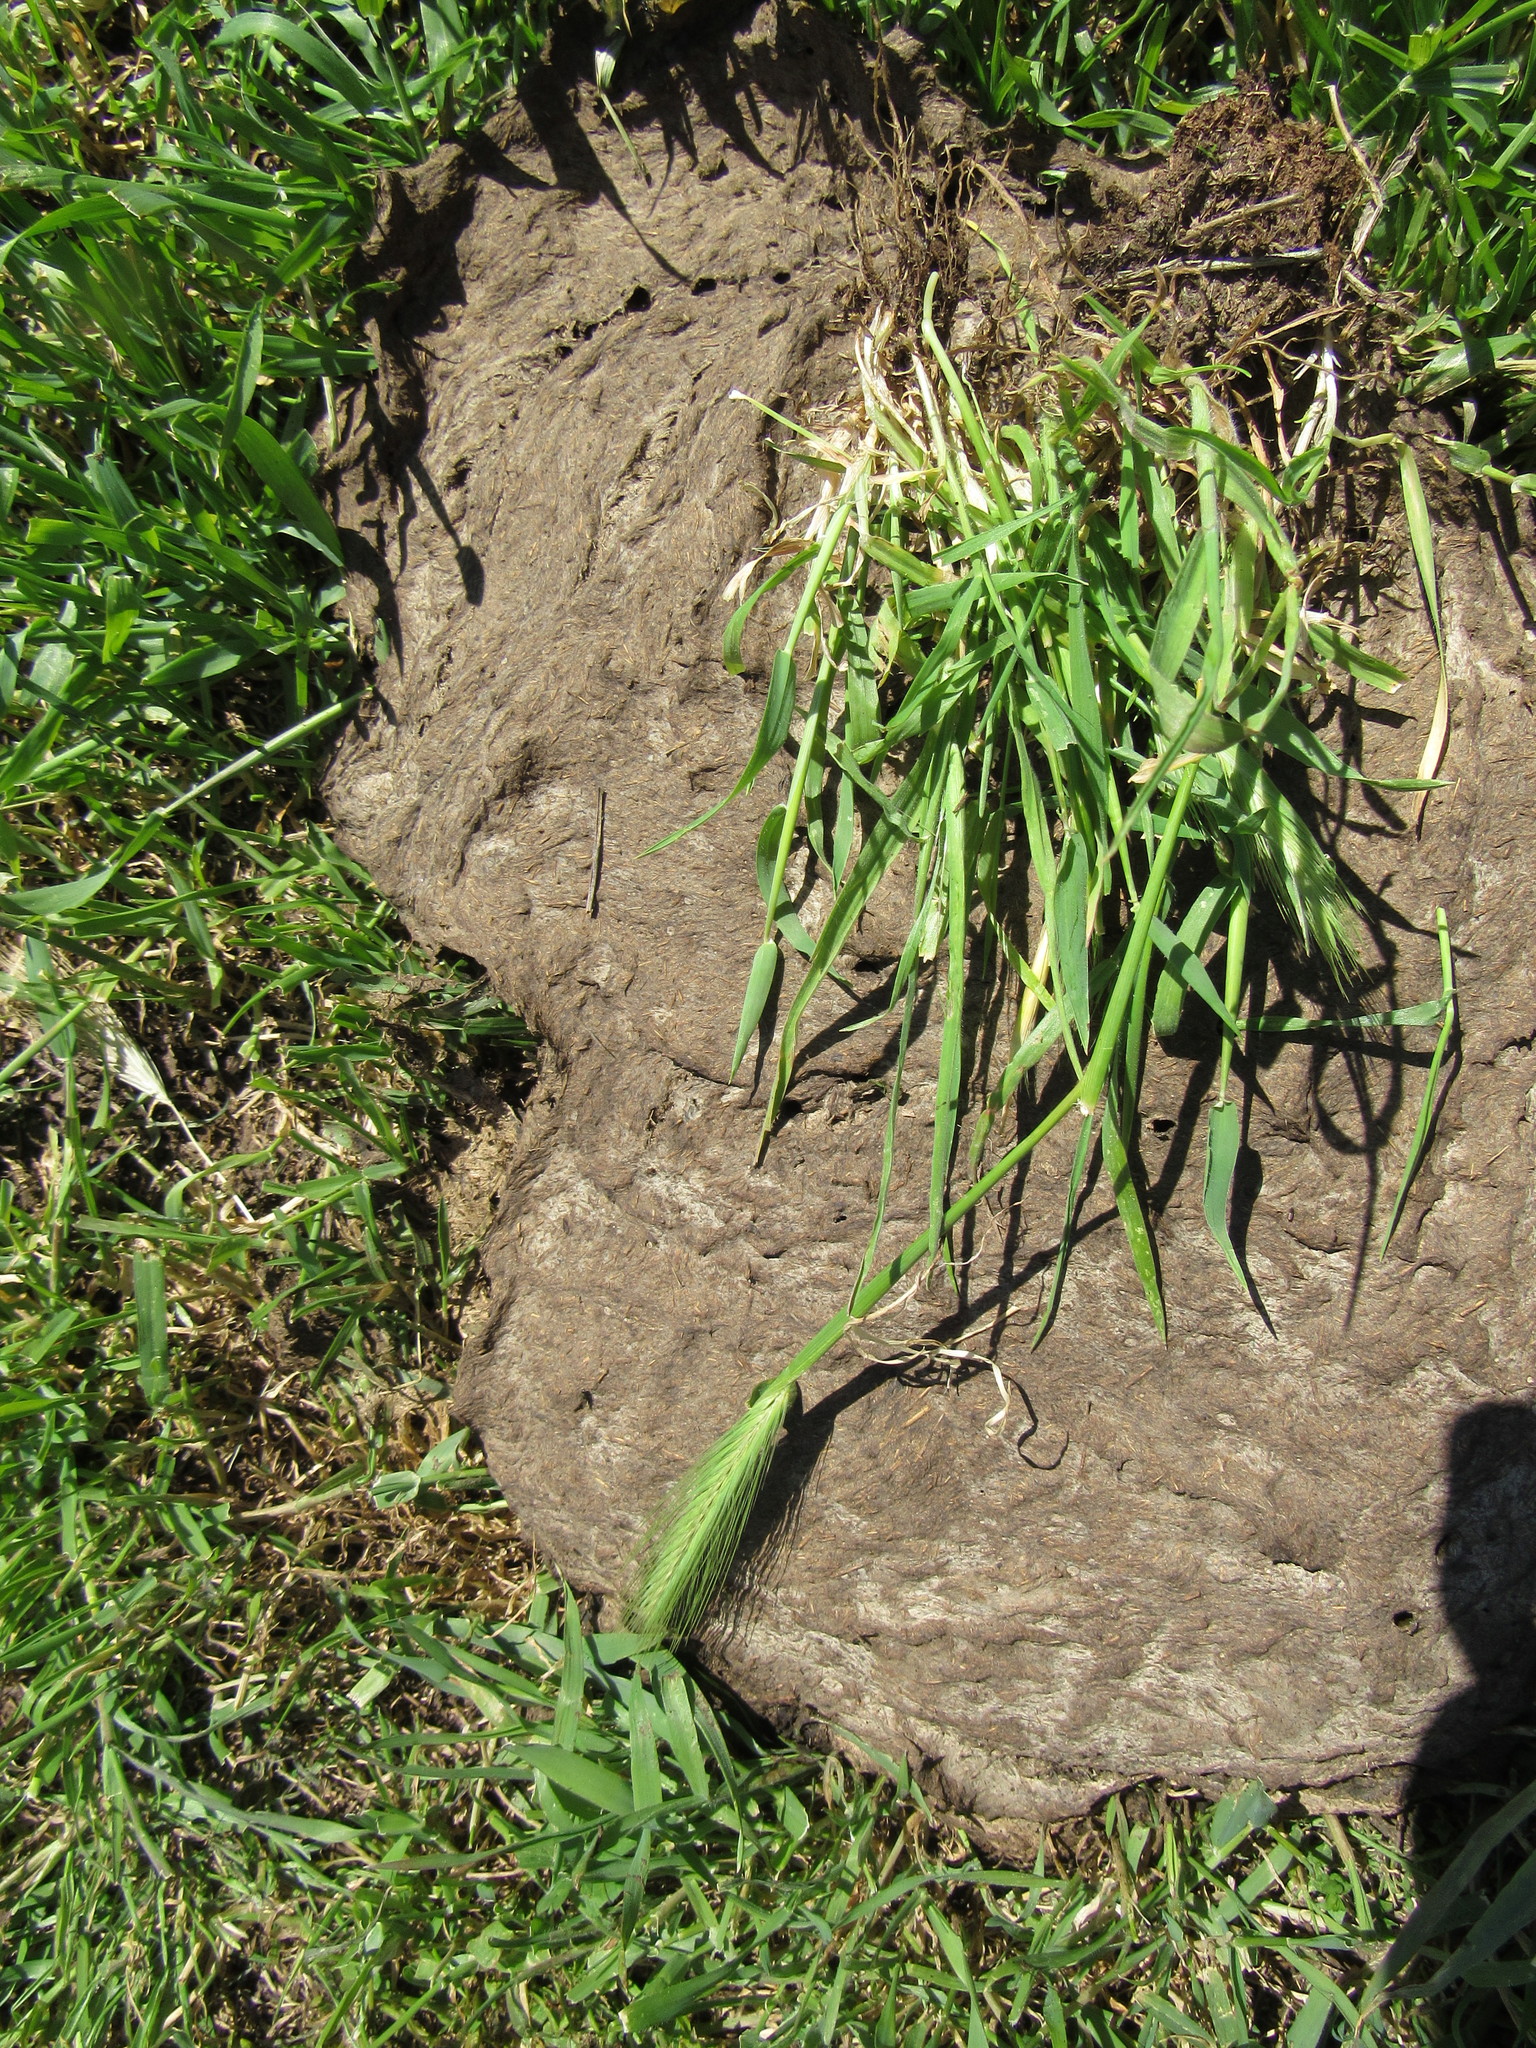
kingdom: Plantae
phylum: Tracheophyta
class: Liliopsida
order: Poales
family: Poaceae
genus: Hordeum
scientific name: Hordeum murinum
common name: Wall barley
